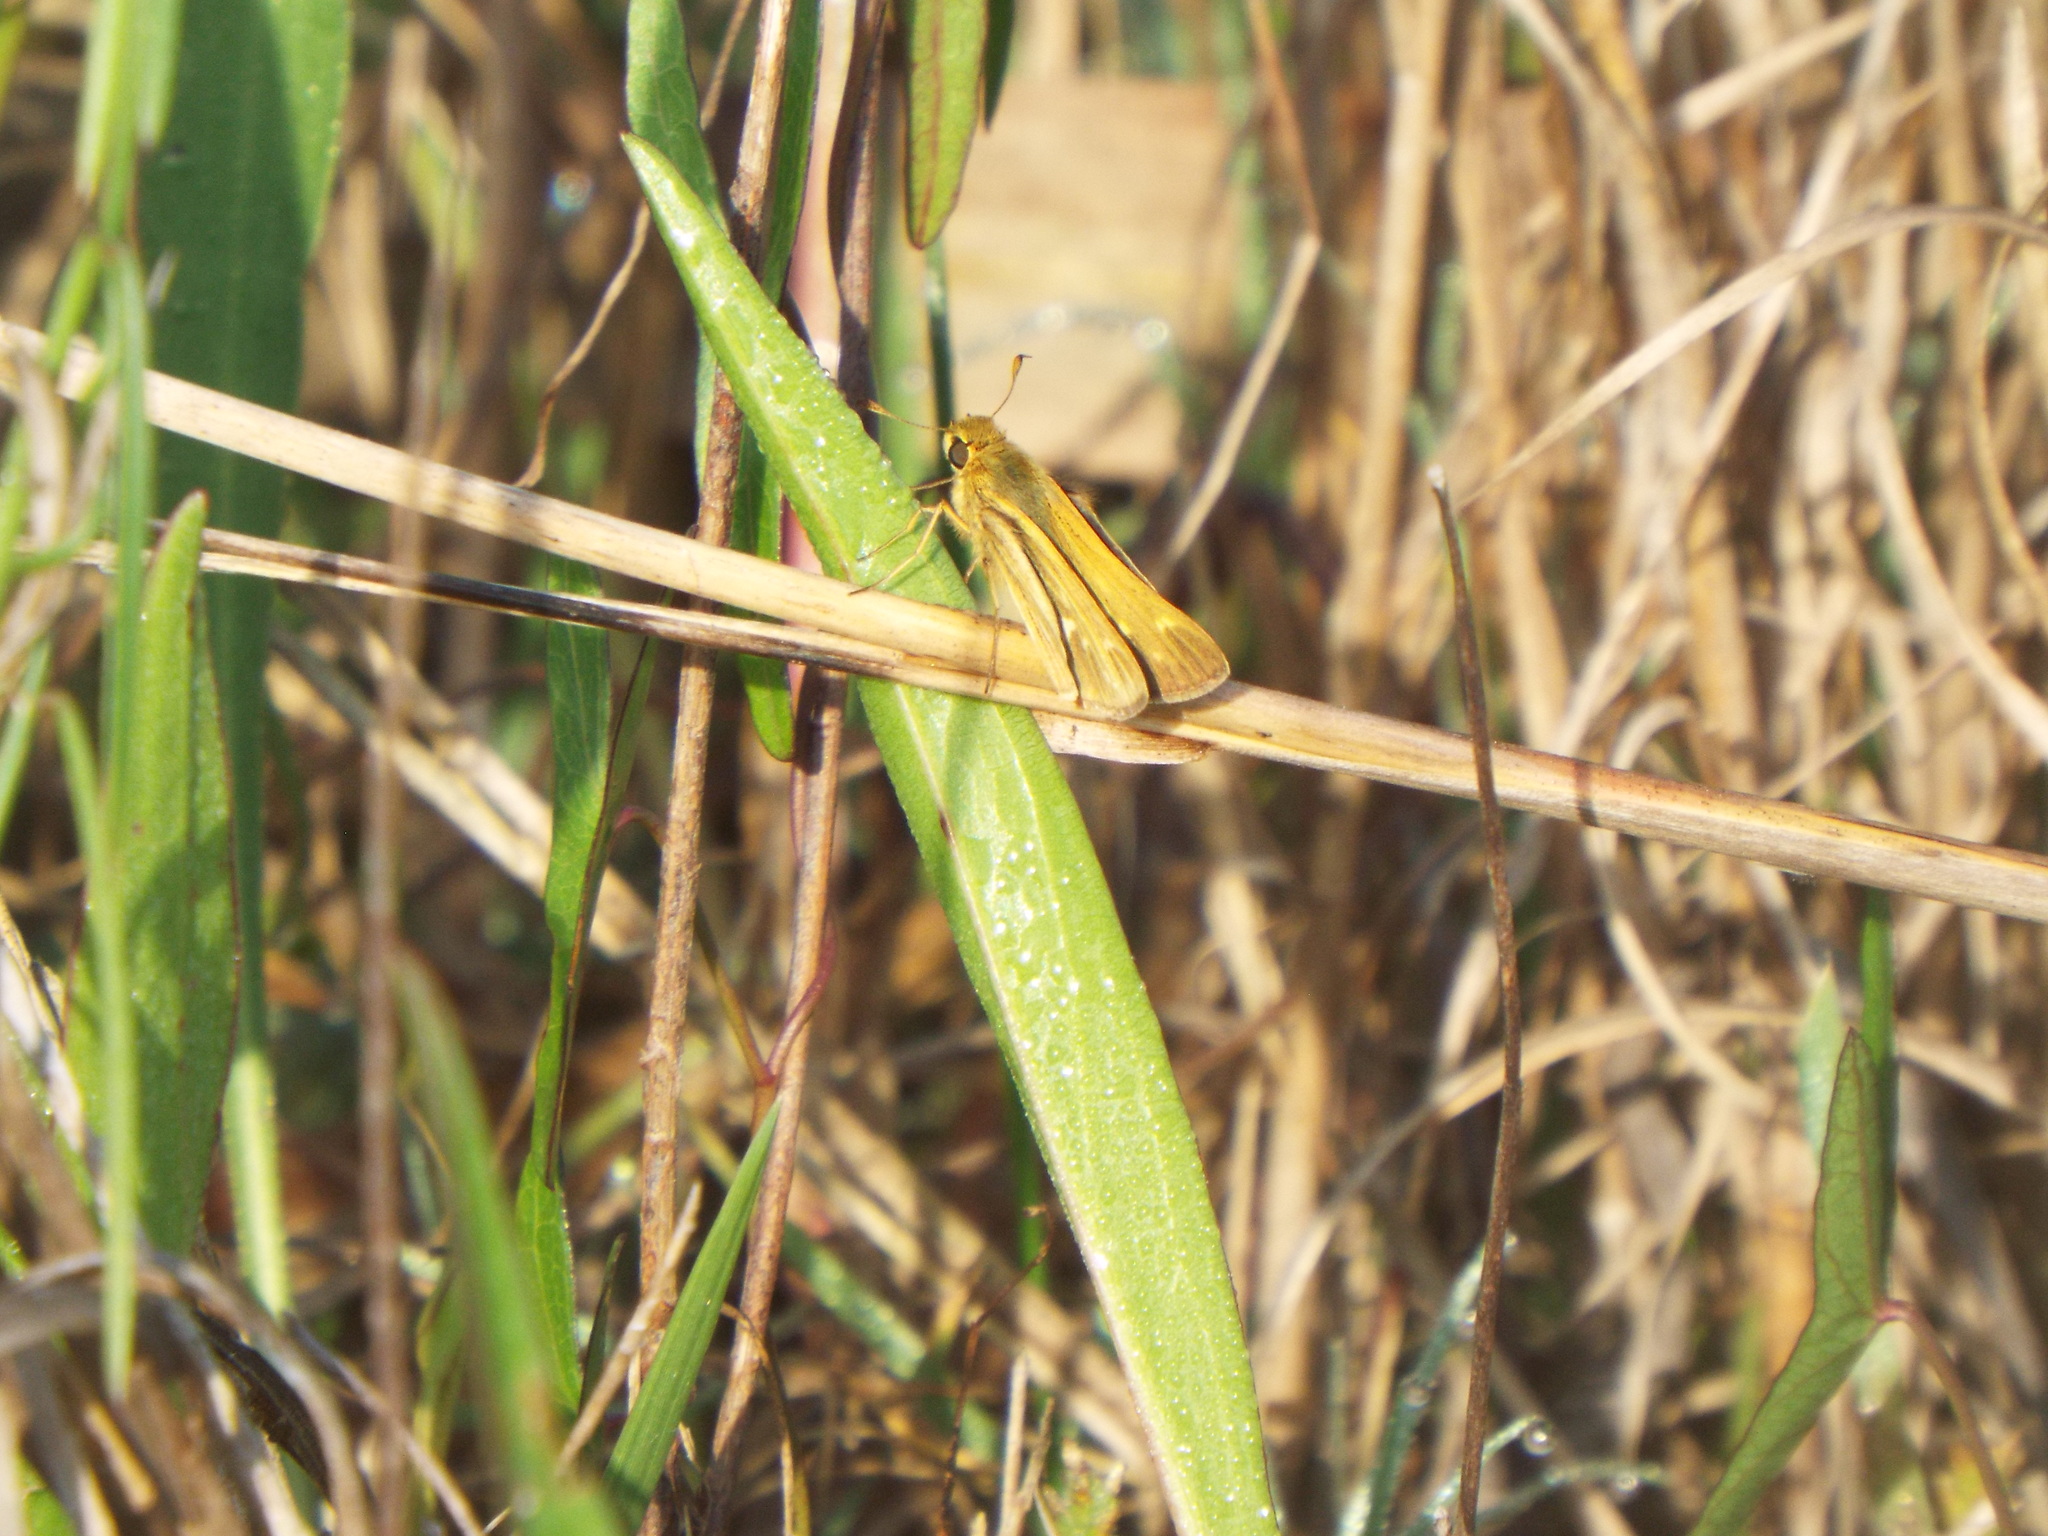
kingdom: Animalia
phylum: Arthropoda
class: Insecta
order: Lepidoptera
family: Hesperiidae
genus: Panoquina
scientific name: Panoquina panoquin
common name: Salt marsh skipper
